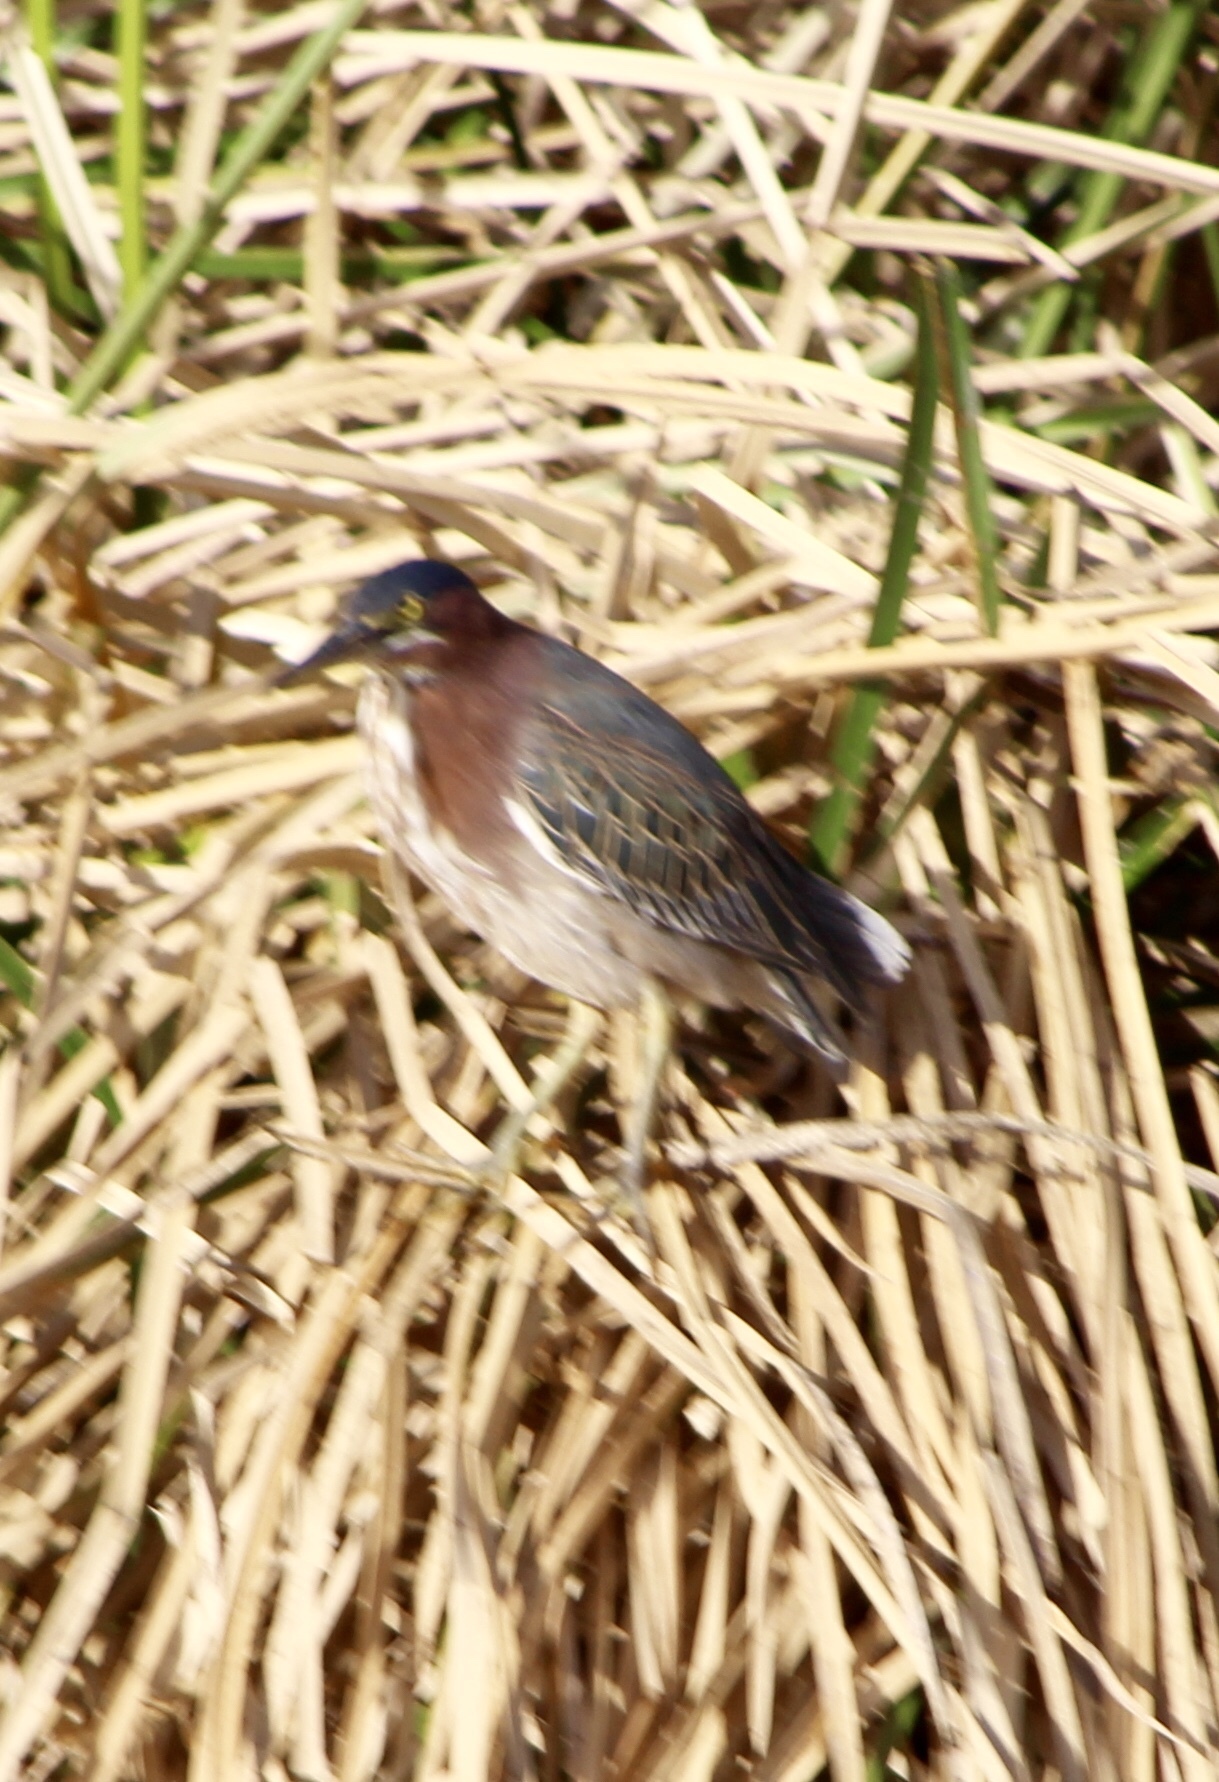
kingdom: Animalia
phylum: Chordata
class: Aves
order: Pelecaniformes
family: Ardeidae
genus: Butorides
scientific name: Butorides virescens
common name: Green heron
